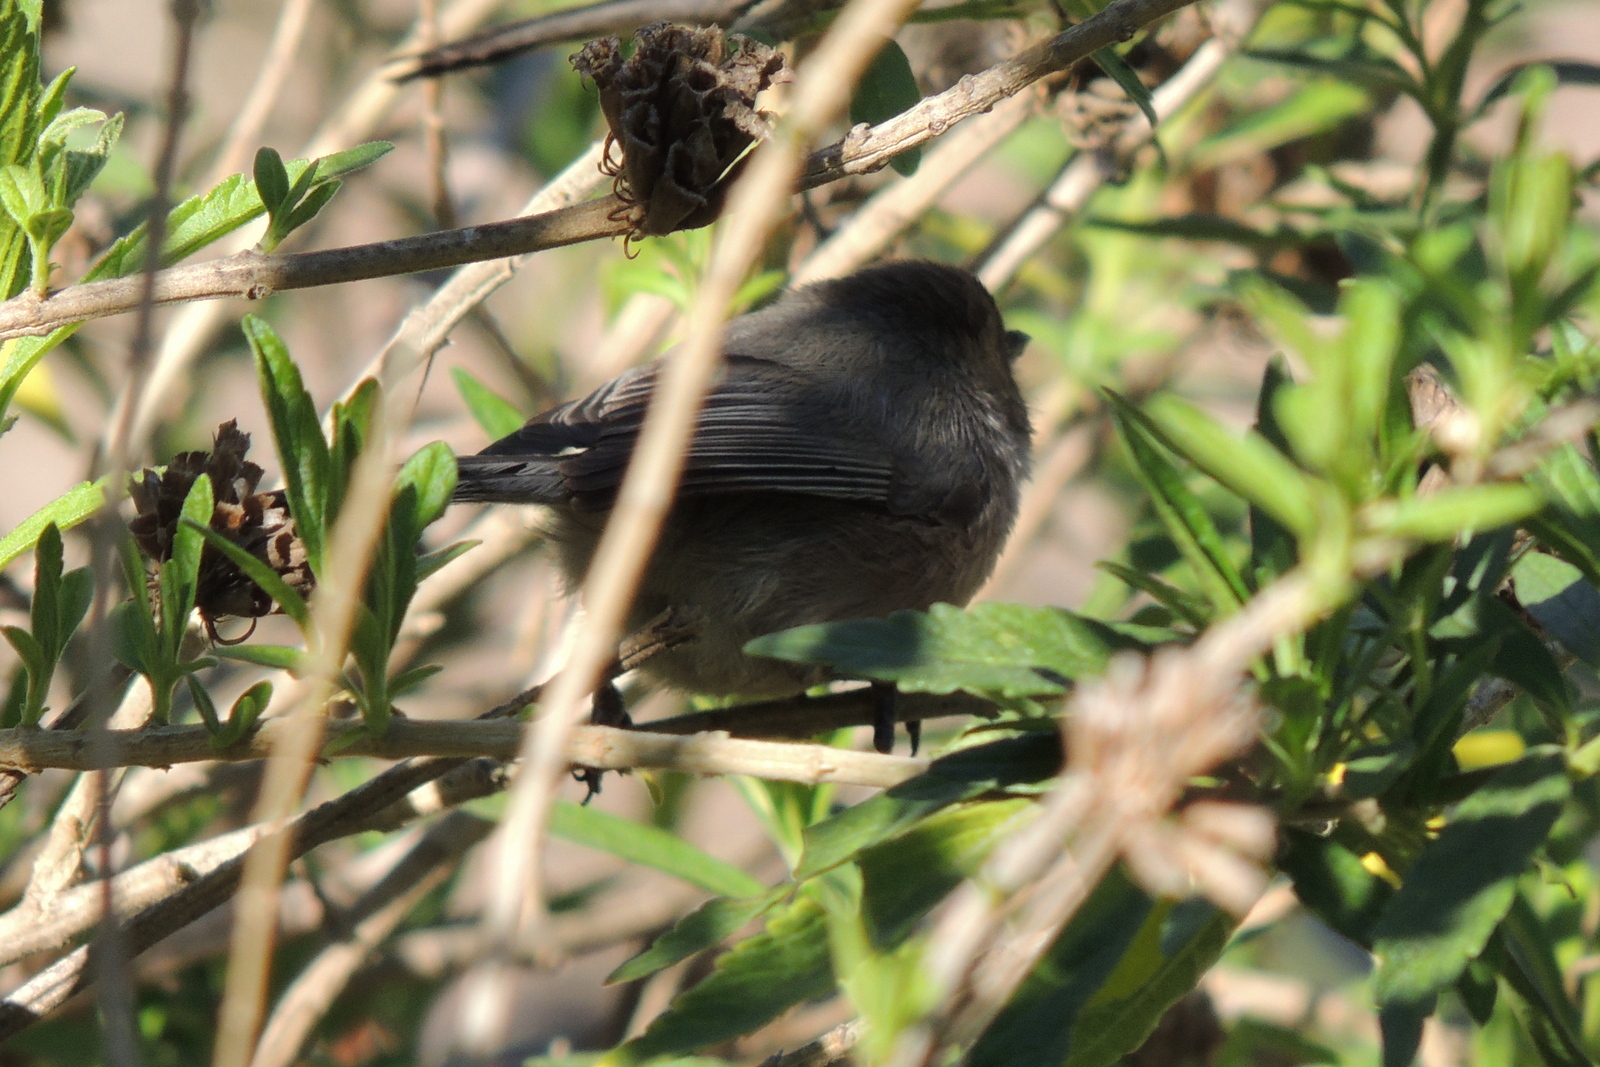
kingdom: Animalia
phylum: Chordata
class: Aves
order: Passeriformes
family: Aegithalidae
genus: Psaltriparus
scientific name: Psaltriparus minimus
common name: American bushtit
